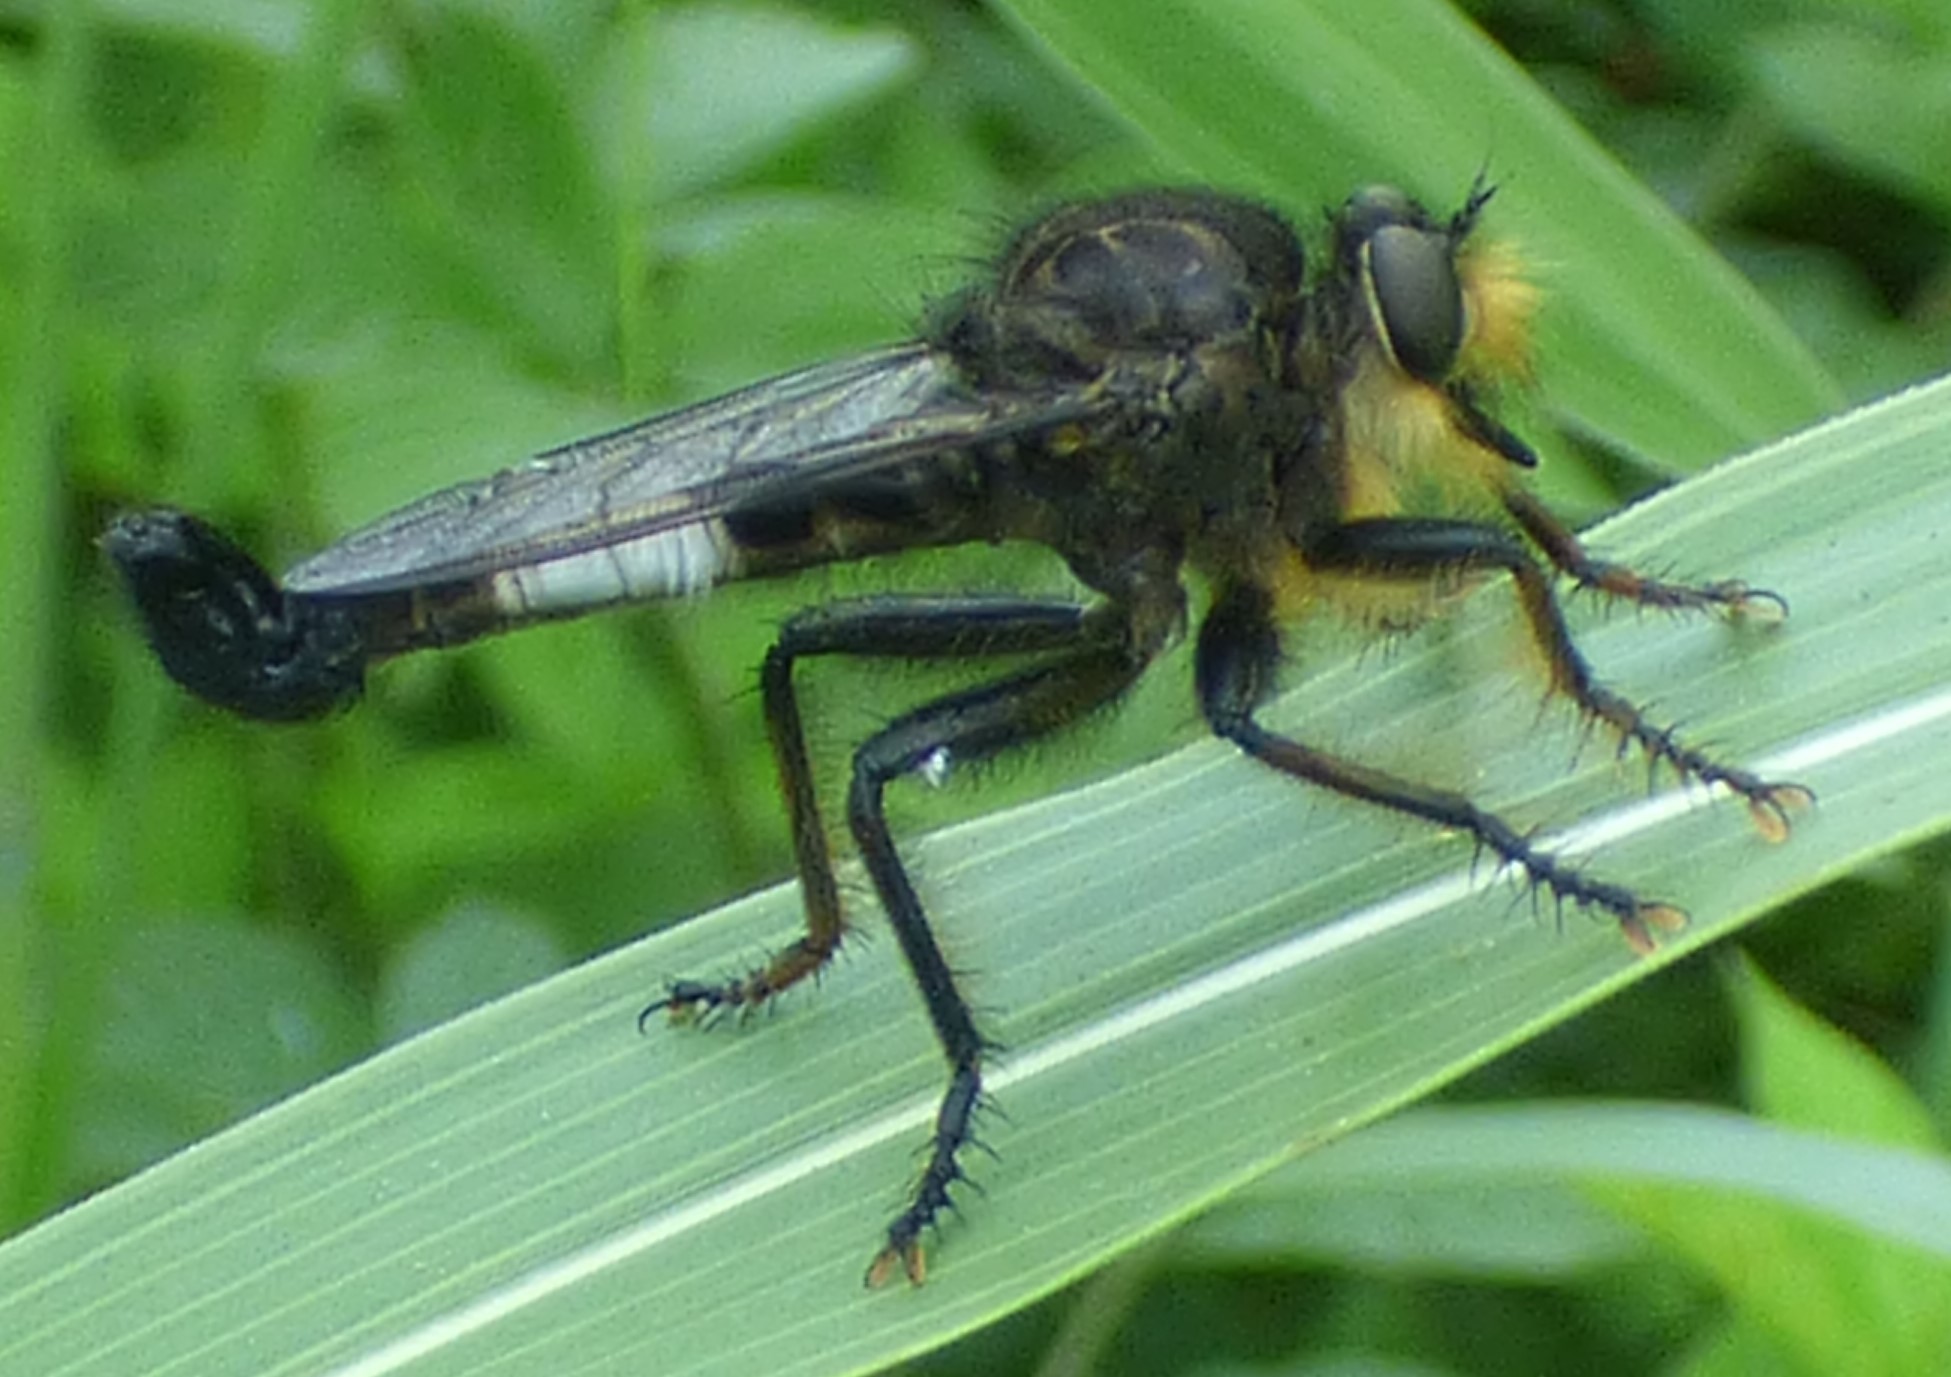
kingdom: Animalia
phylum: Arthropoda
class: Insecta
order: Diptera
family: Asilidae
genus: Efferia
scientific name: Efferia plena
